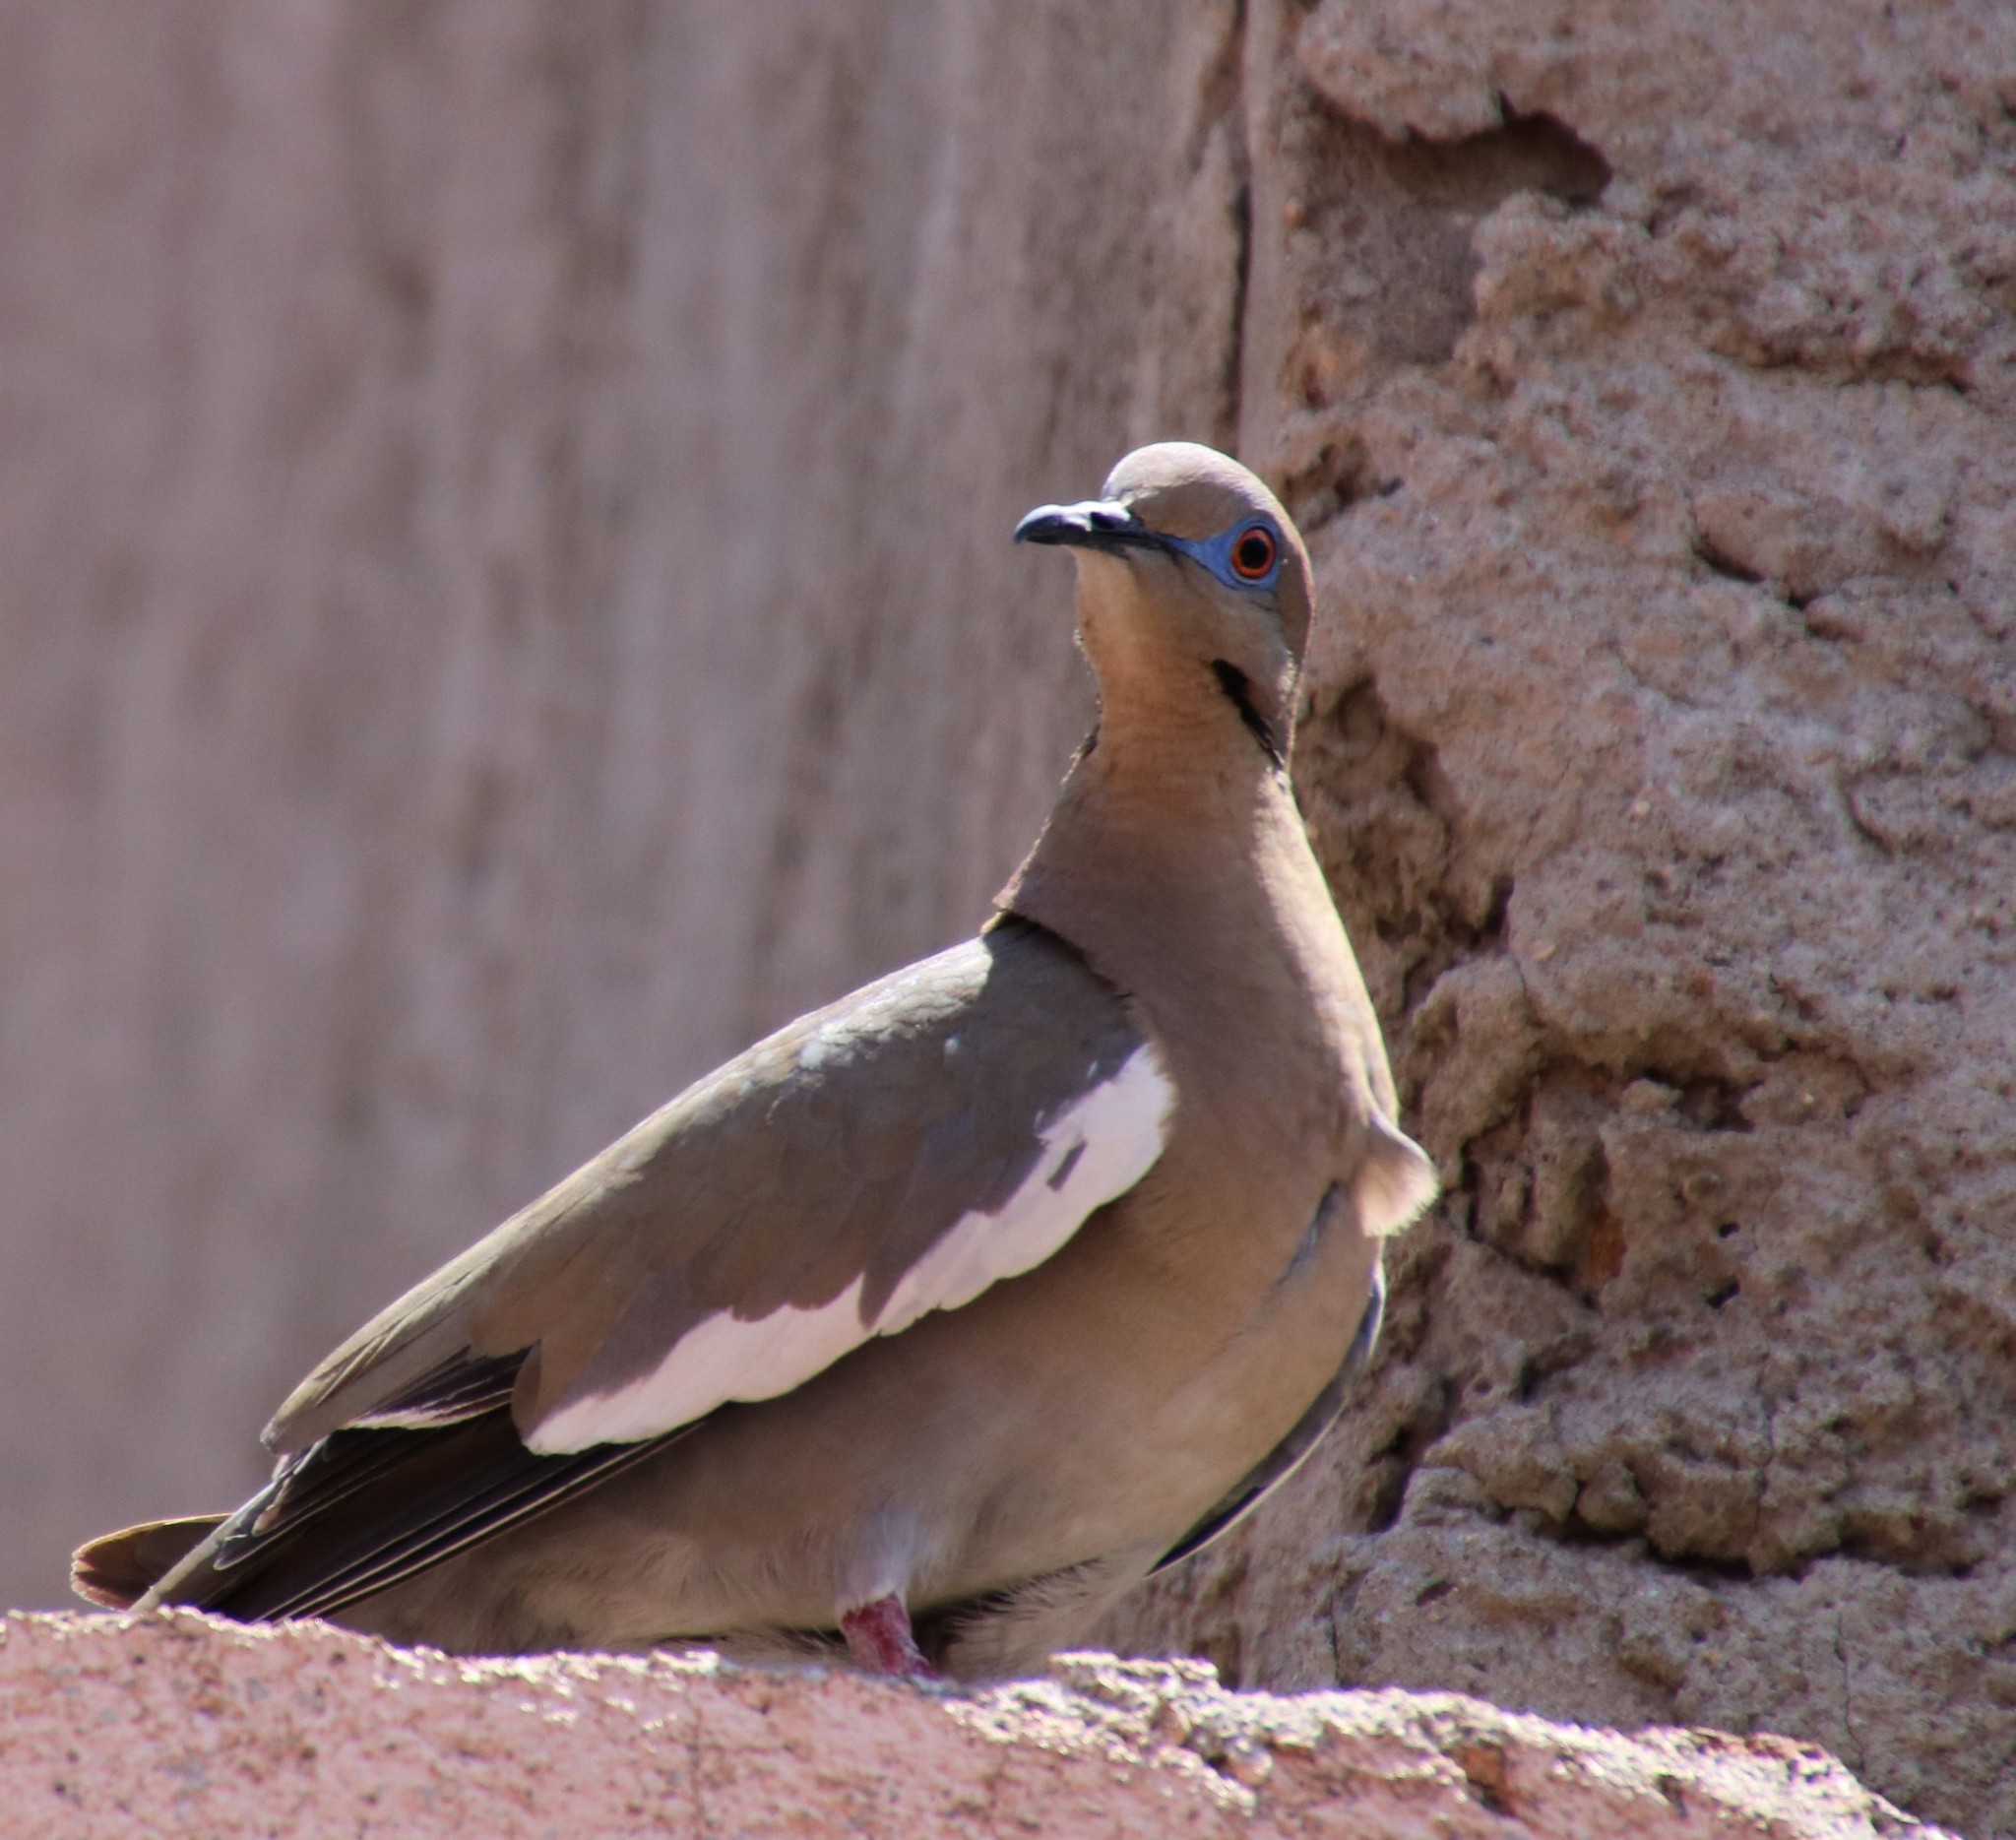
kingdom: Animalia
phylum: Chordata
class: Aves
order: Columbiformes
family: Columbidae
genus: Zenaida
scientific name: Zenaida asiatica
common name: White-winged dove
